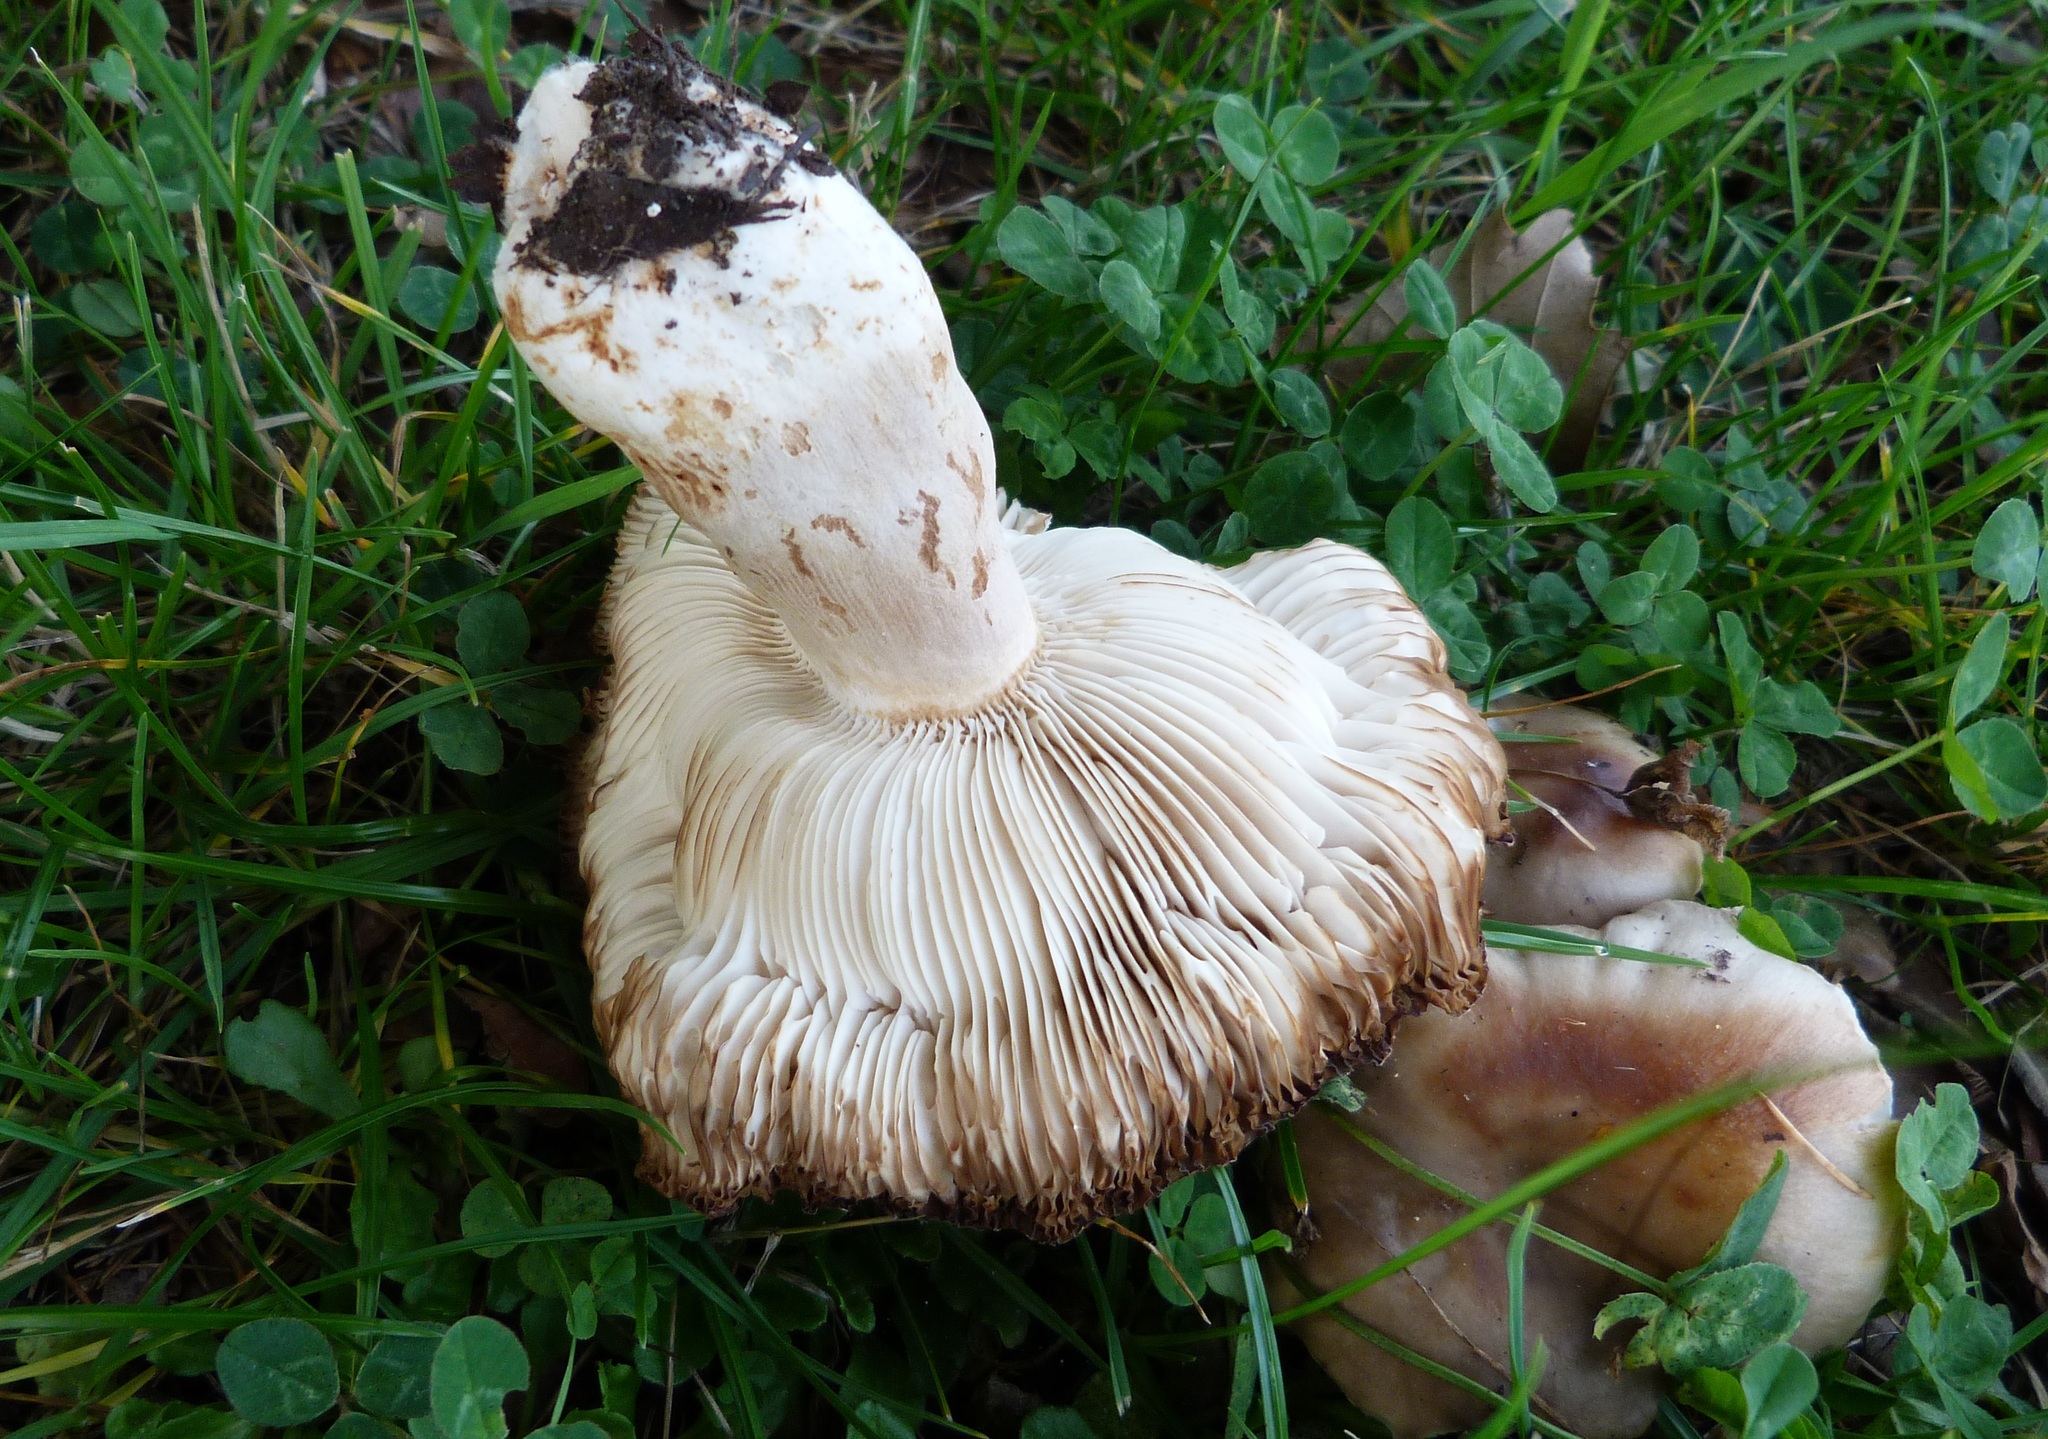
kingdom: Fungi
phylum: Basidiomycota
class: Agaricomycetes
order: Russulales
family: Russulaceae
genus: Russula
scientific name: Russula amoenolens
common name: Camembert brittlegill
